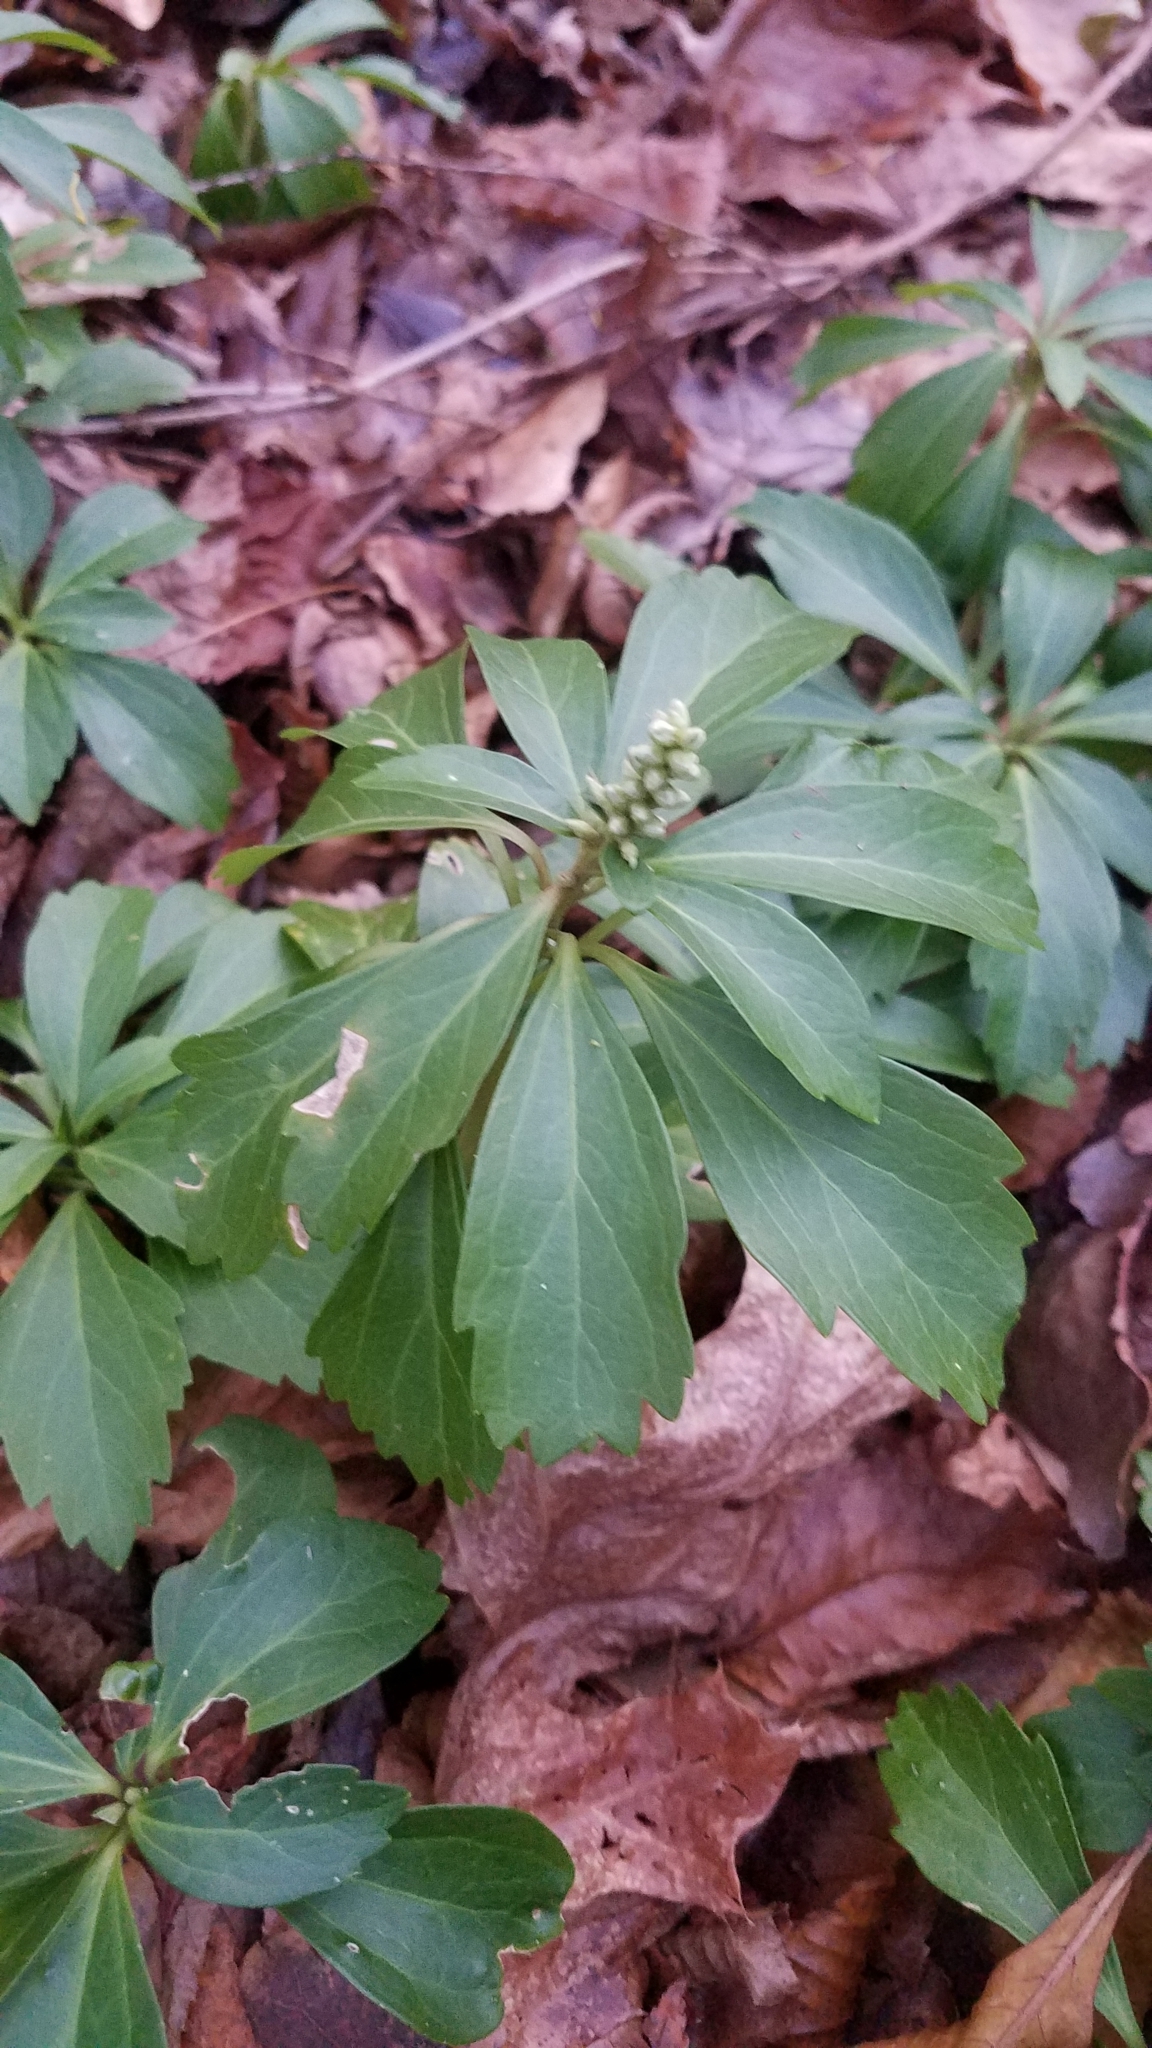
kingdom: Plantae
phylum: Tracheophyta
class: Magnoliopsida
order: Buxales
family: Buxaceae
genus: Pachysandra
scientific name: Pachysandra terminalis
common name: Japanese pachysandra
